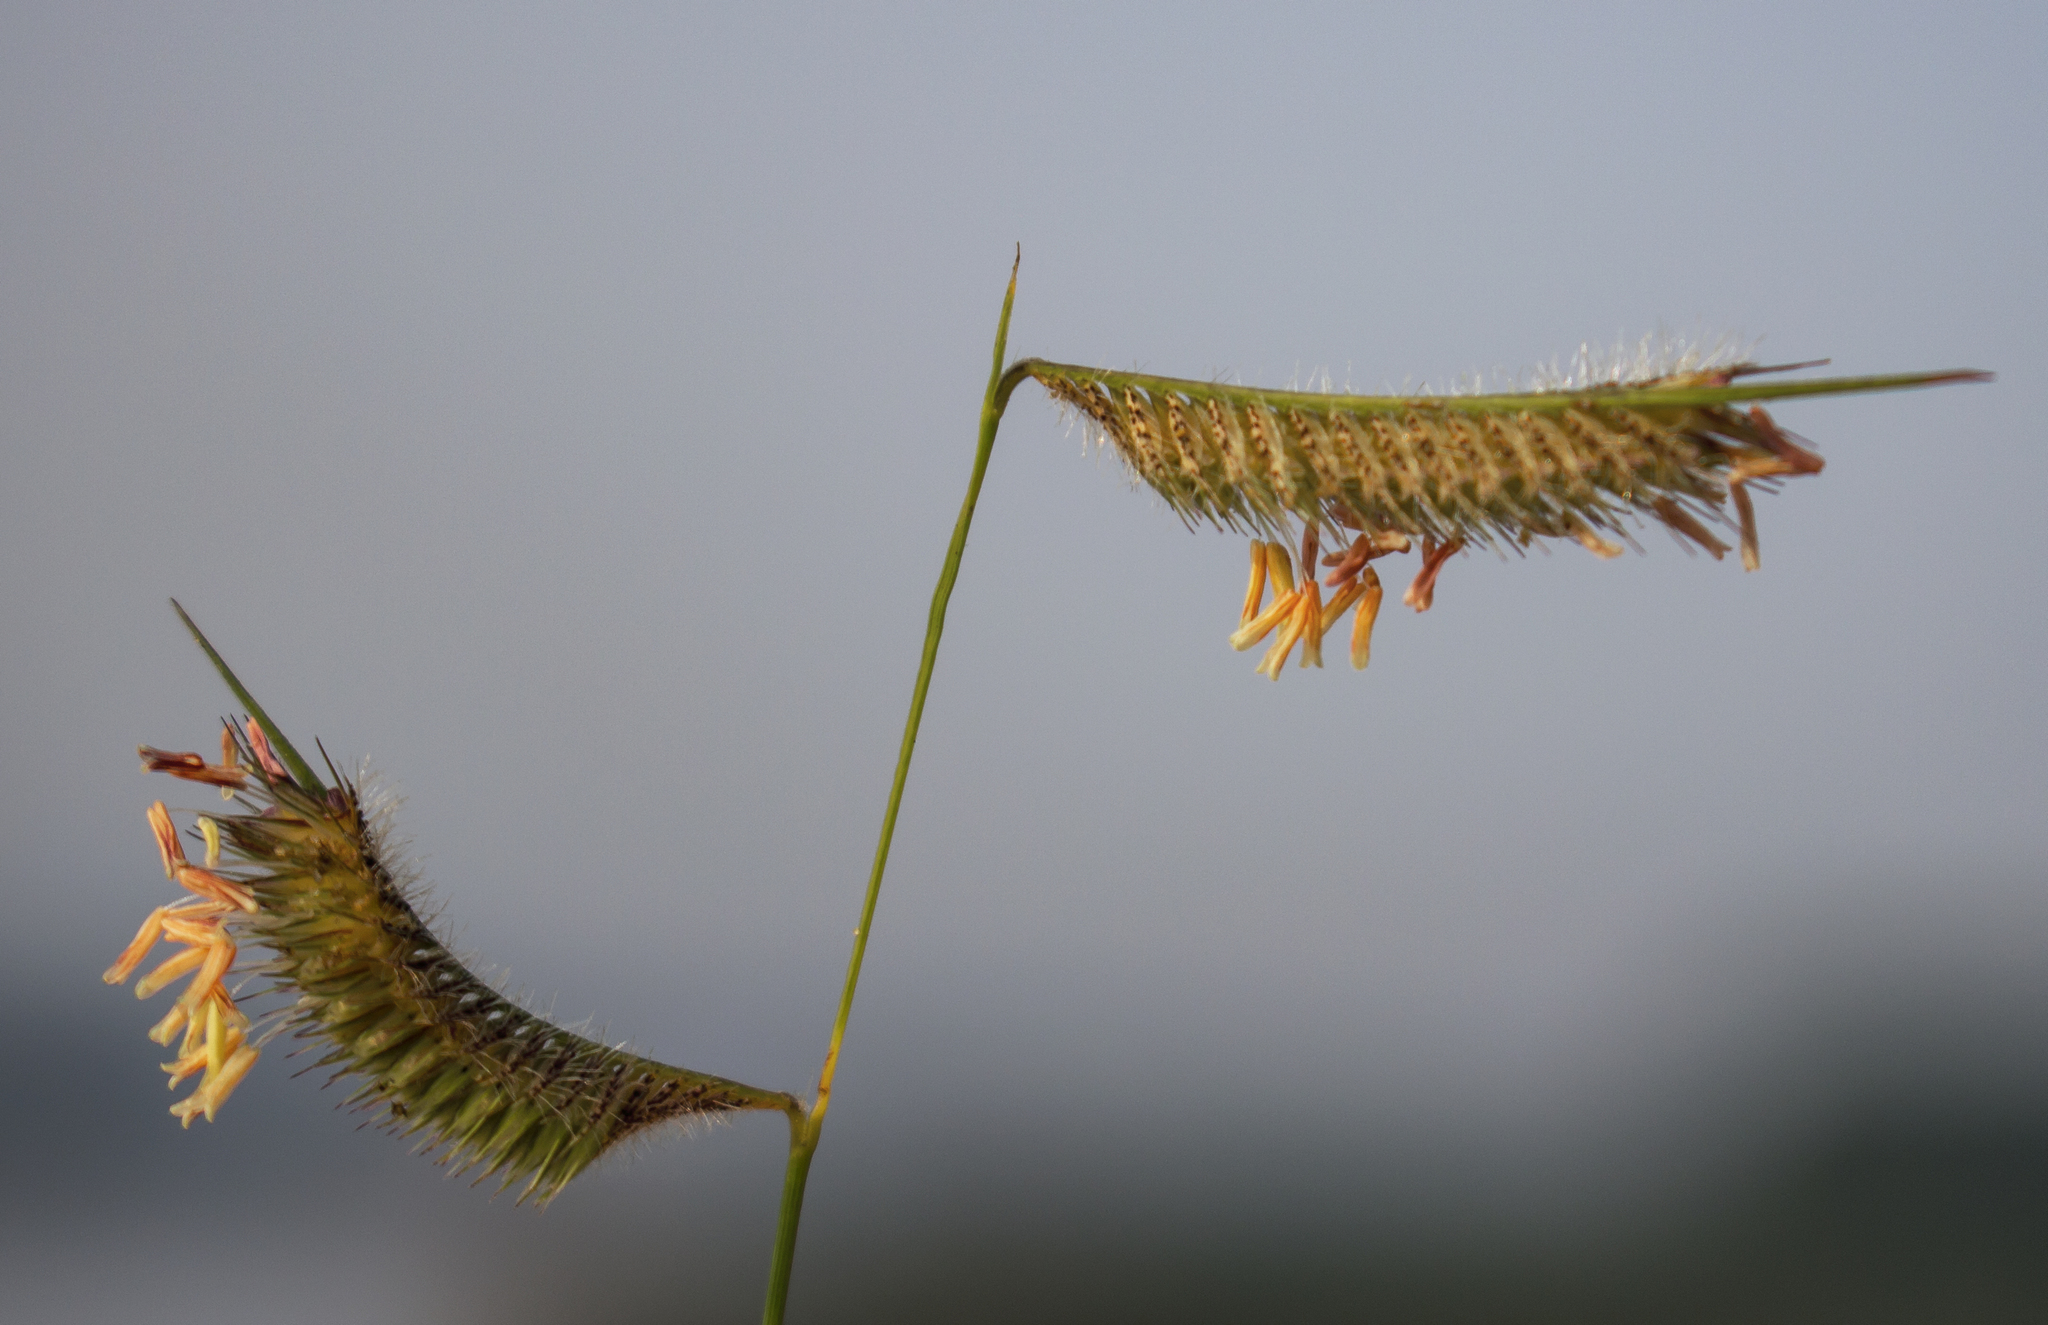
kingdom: Plantae
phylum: Tracheophyta
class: Liliopsida
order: Poales
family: Poaceae
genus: Bouteloua
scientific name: Bouteloua hirsuta
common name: Hairy grama
